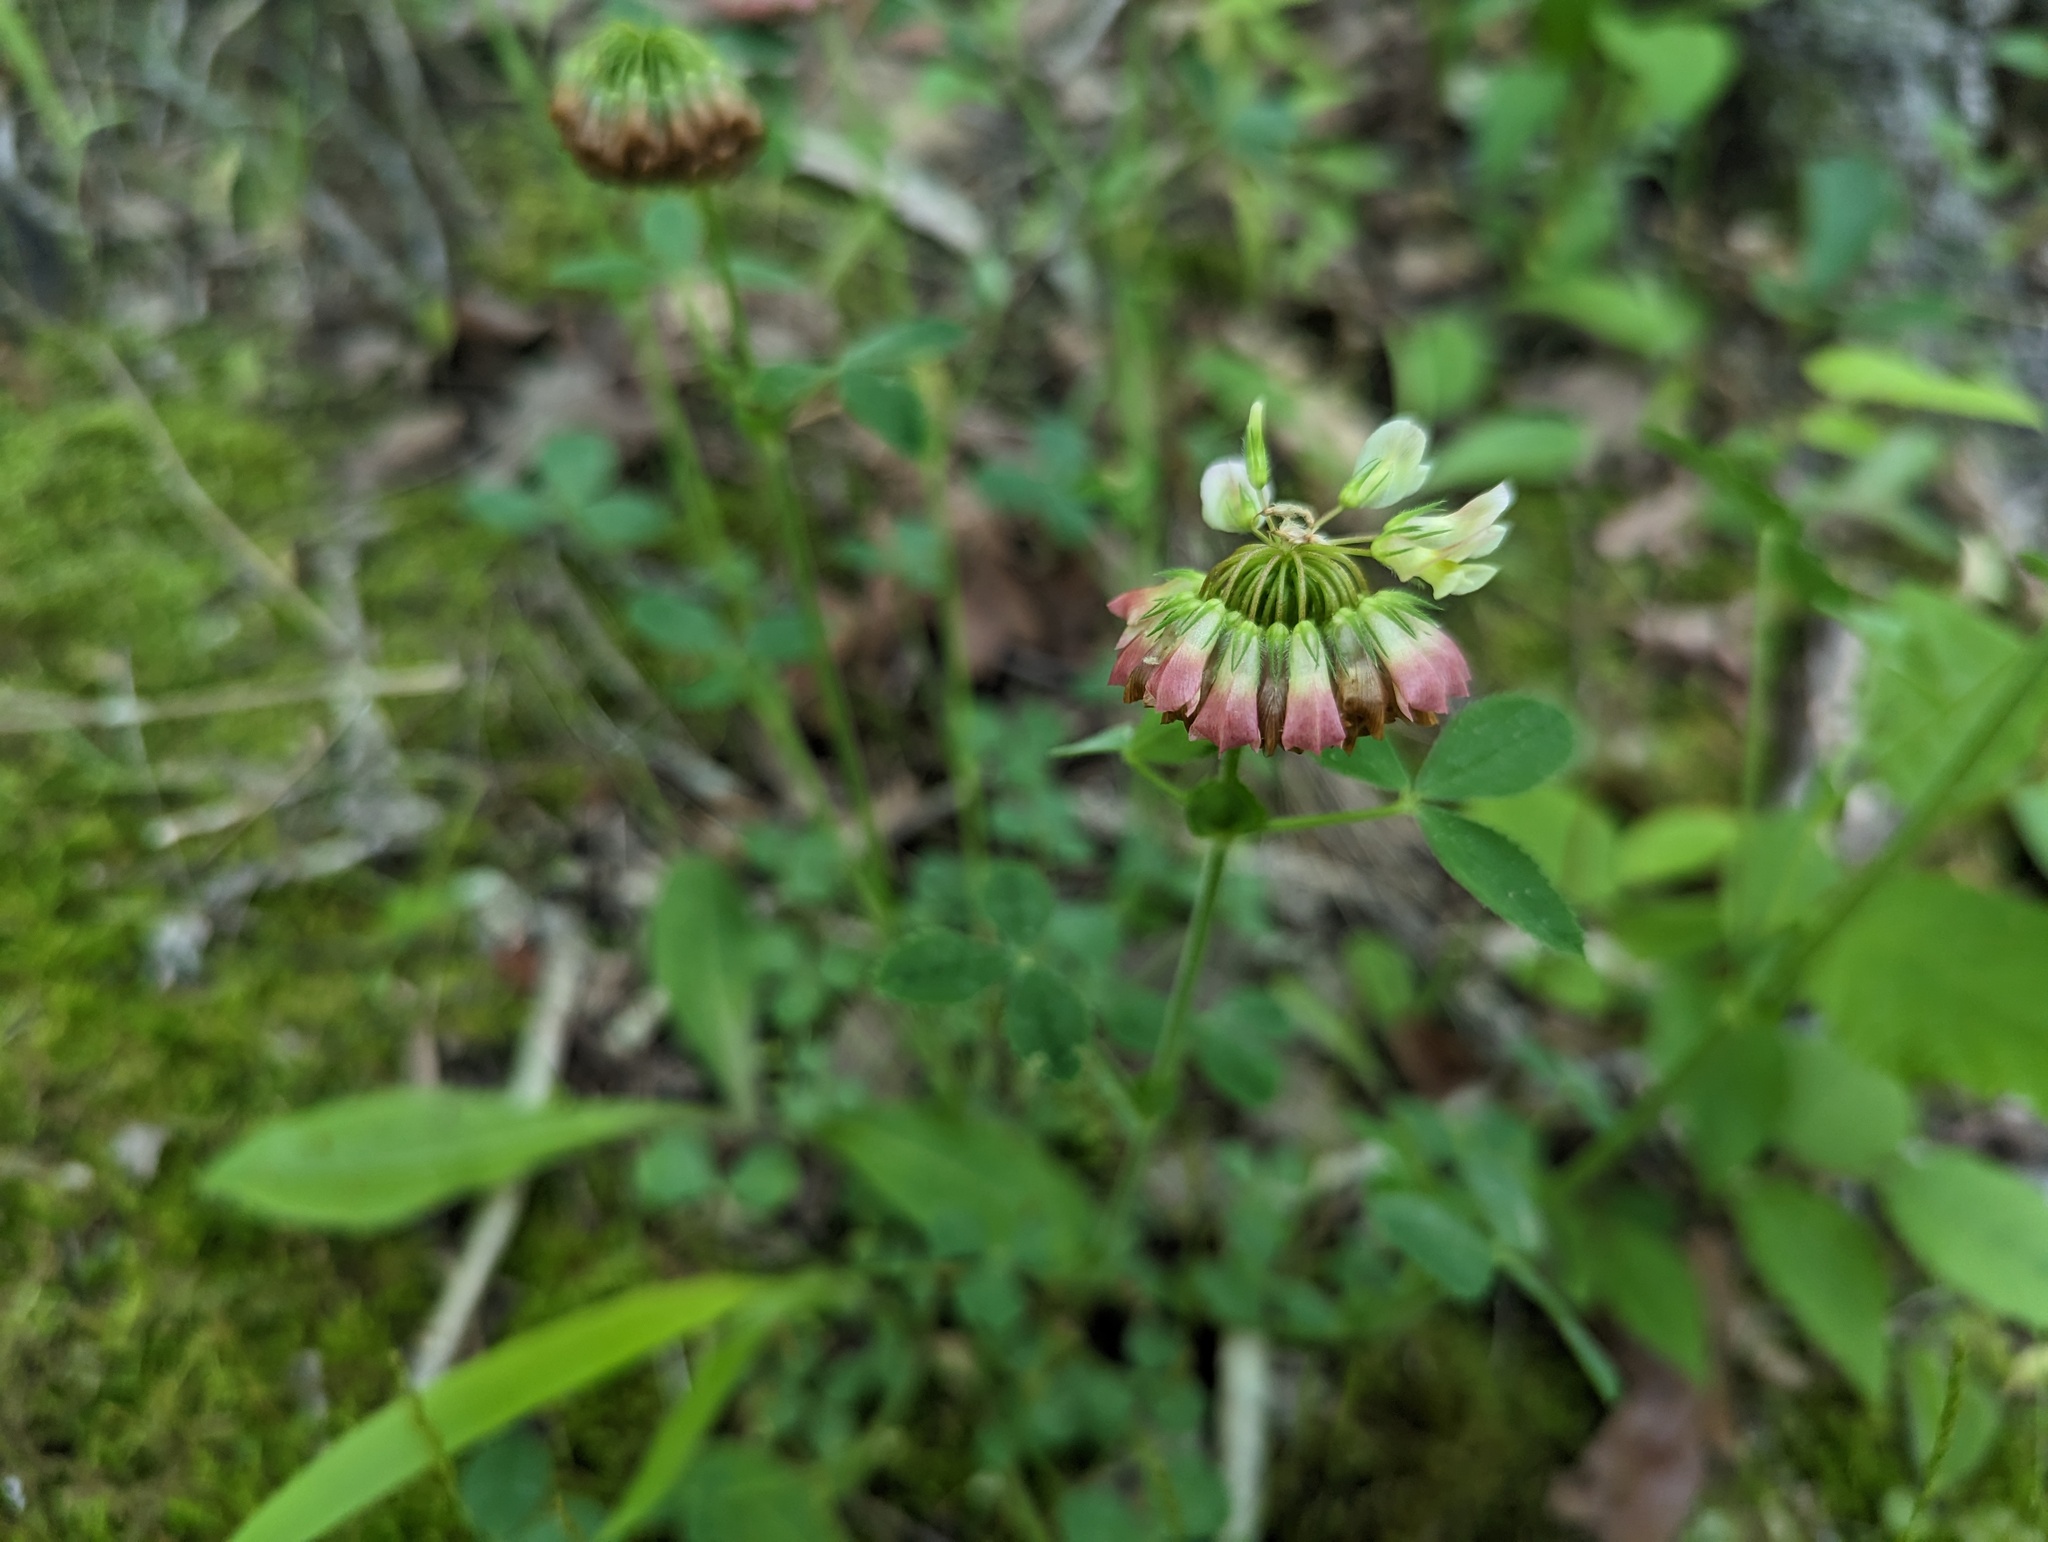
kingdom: Plantae
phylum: Tracheophyta
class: Magnoliopsida
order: Fabales
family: Fabaceae
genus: Trifolium
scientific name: Trifolium reflexum
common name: Buffalo clover
